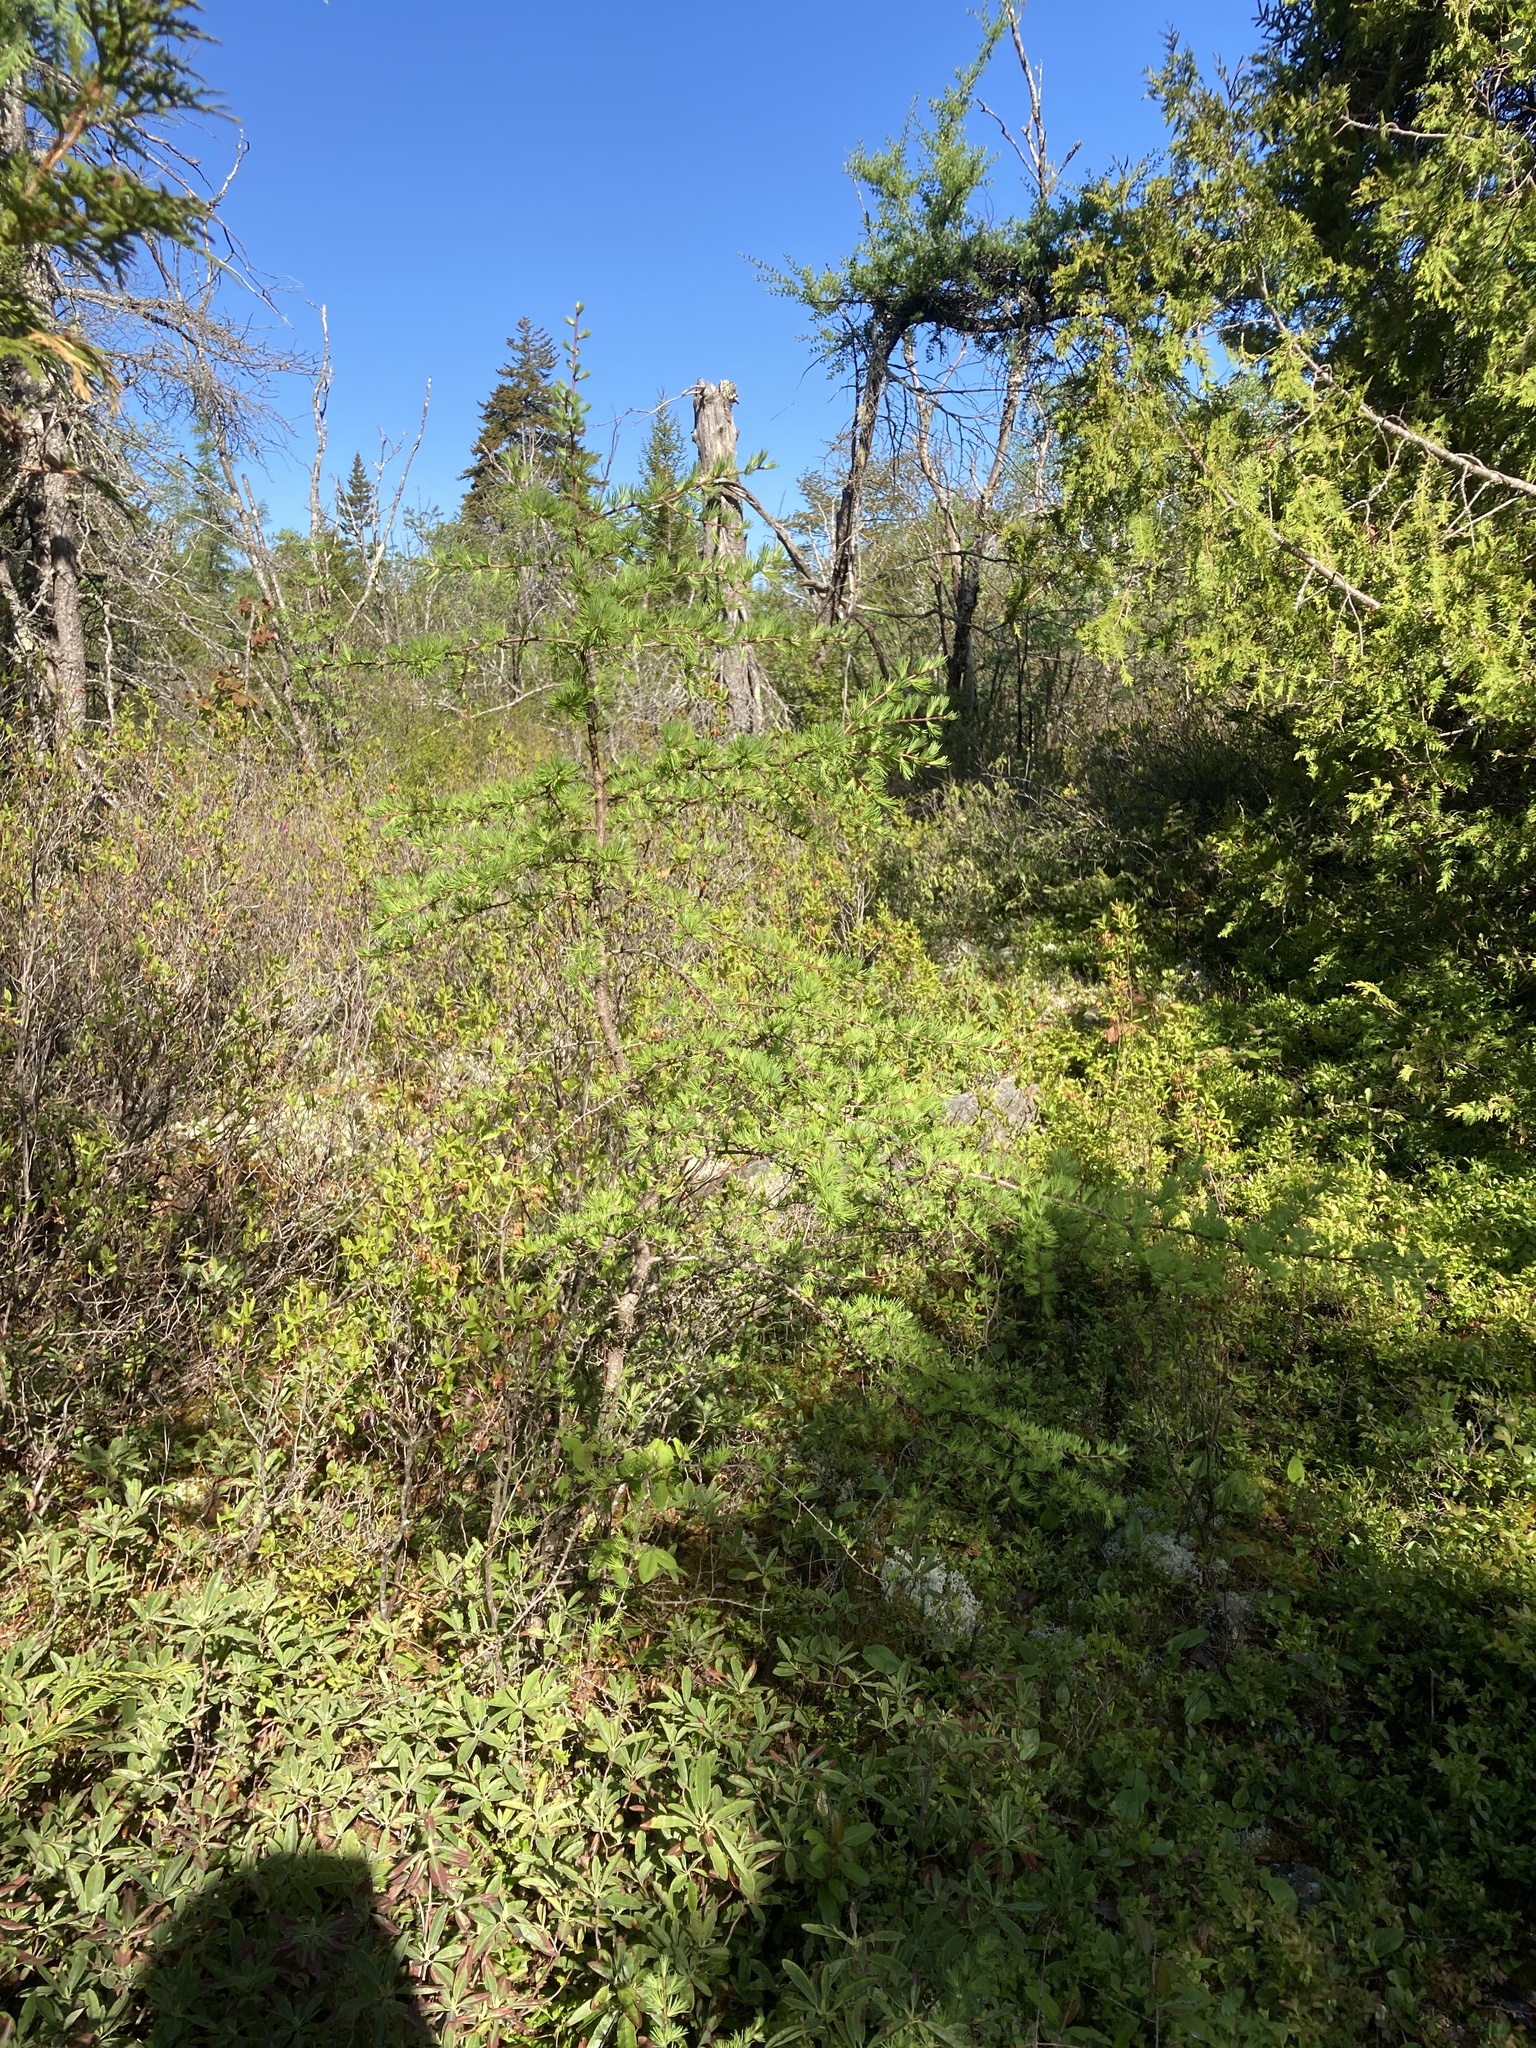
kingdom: Plantae
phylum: Tracheophyta
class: Pinopsida
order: Pinales
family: Pinaceae
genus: Larix
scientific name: Larix laricina
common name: American larch
